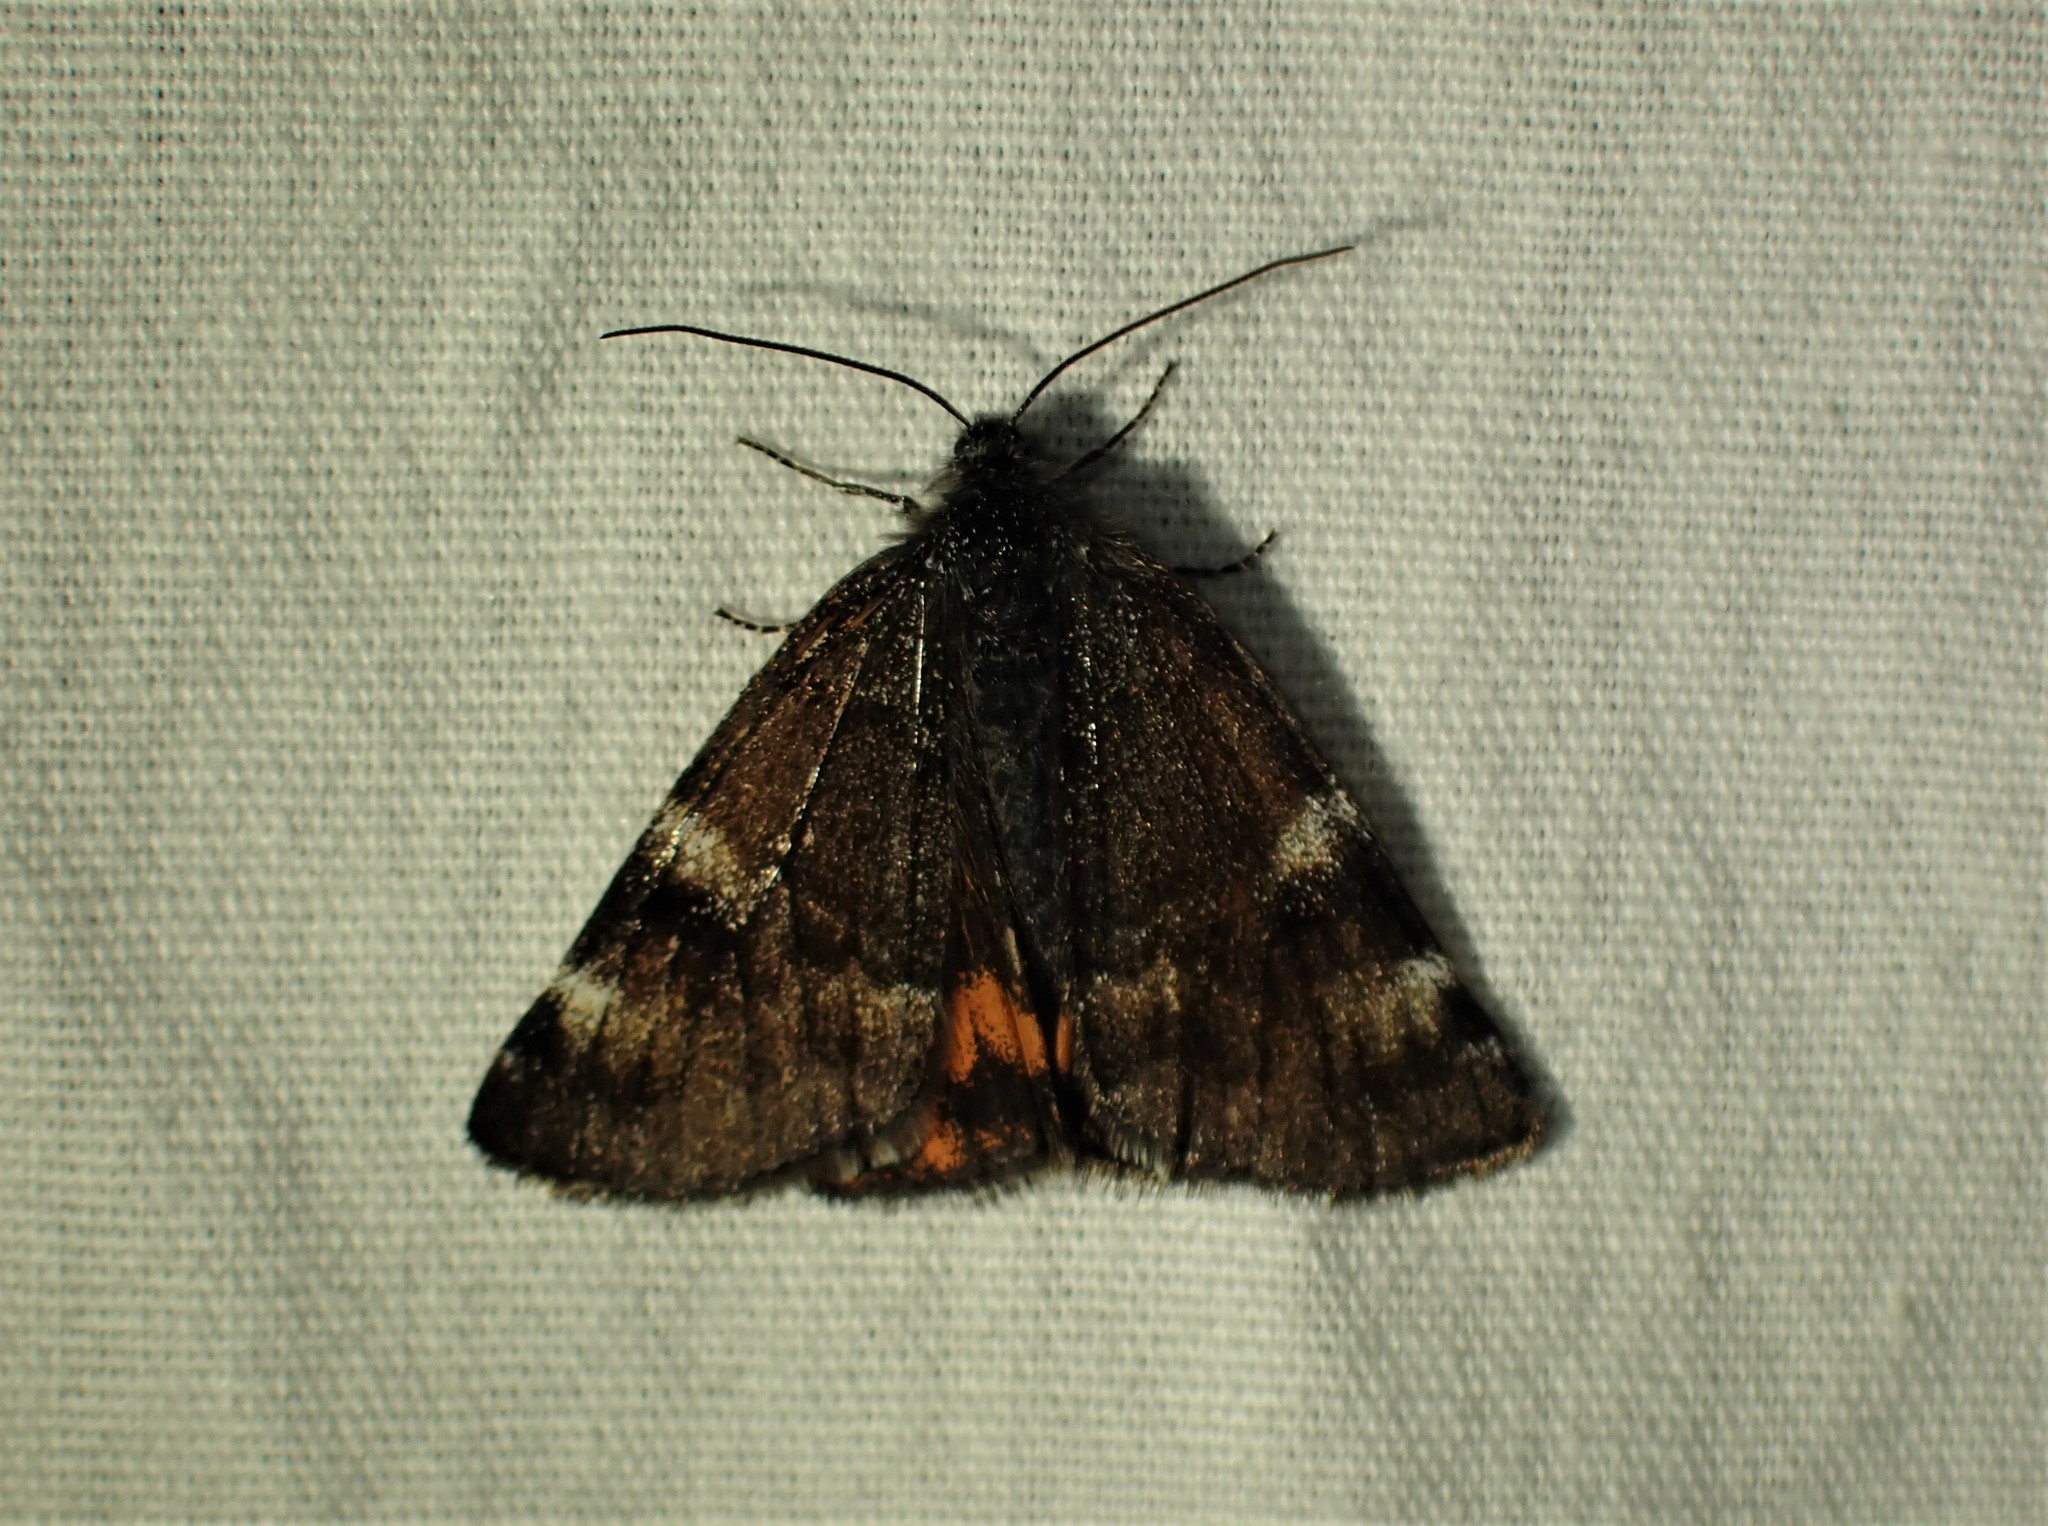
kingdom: Animalia
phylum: Arthropoda
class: Insecta
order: Lepidoptera
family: Geometridae
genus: Archiearis
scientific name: Archiearis infans
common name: First born geometer
